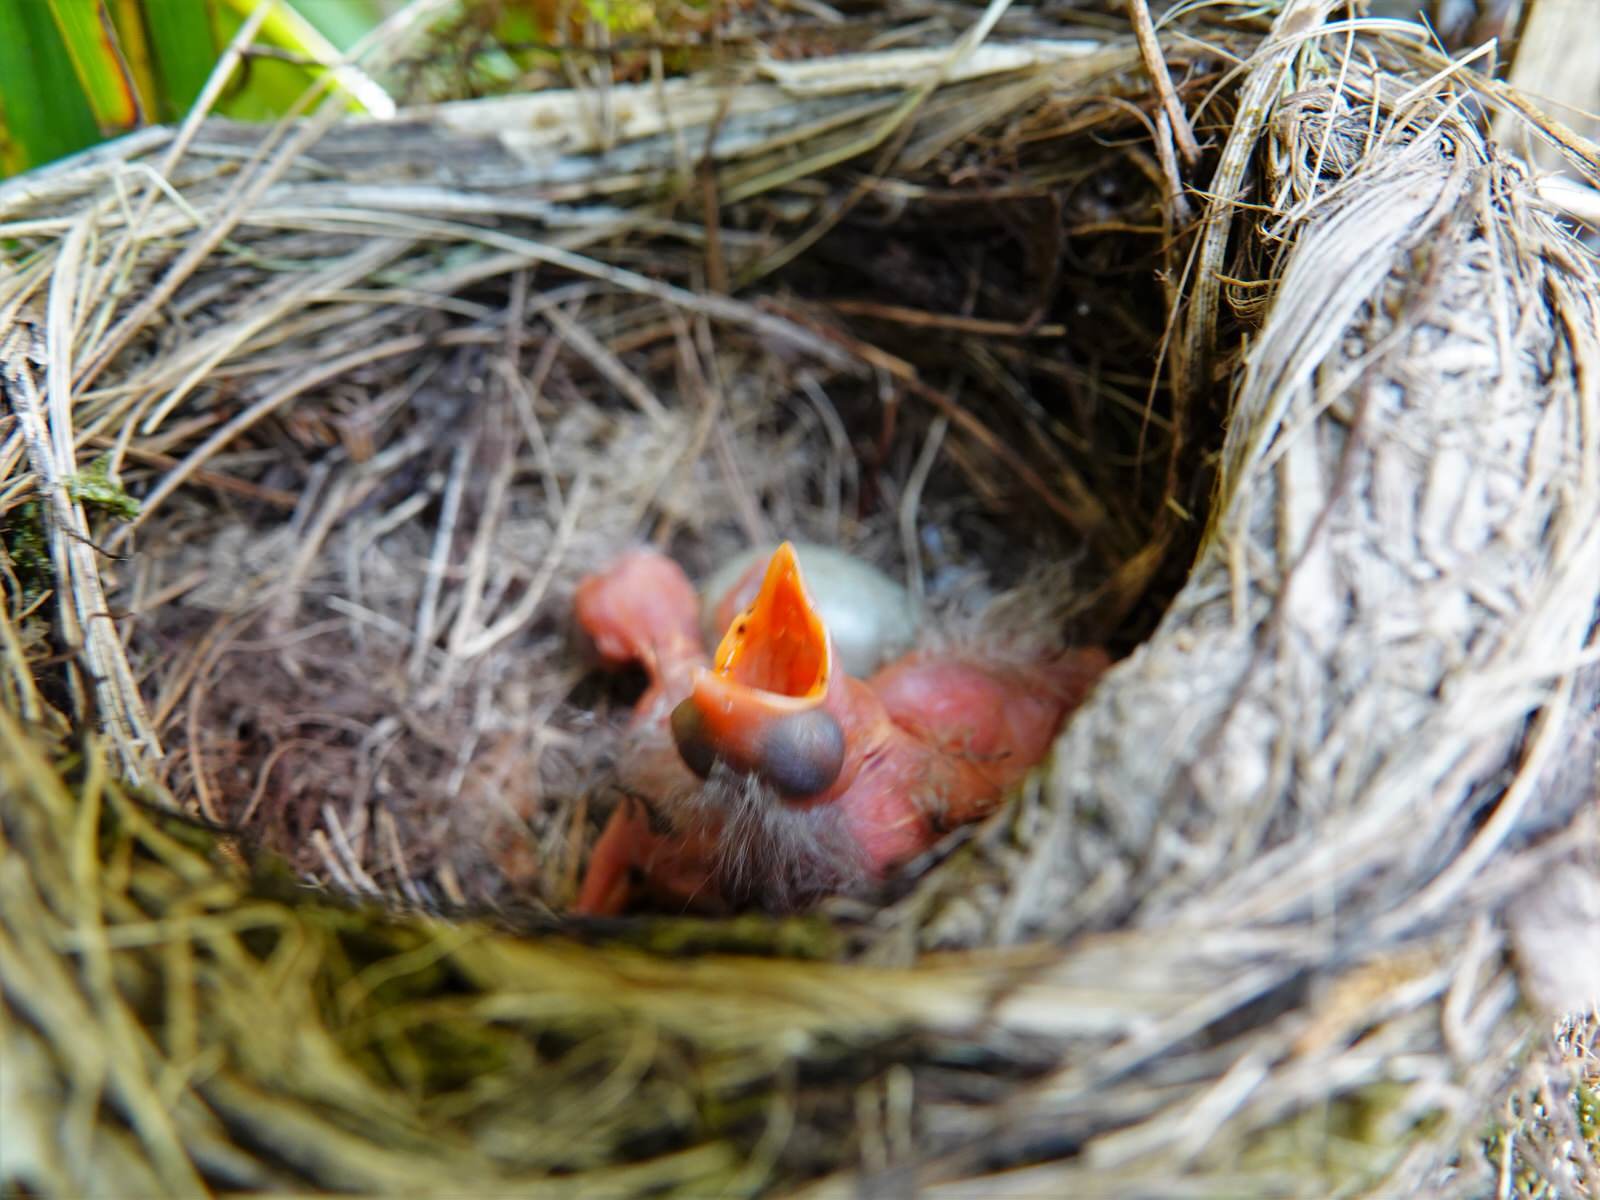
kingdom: Animalia
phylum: Chordata
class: Aves
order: Passeriformes
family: Turdidae
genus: Turdus
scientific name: Turdus merula
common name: Common blackbird
